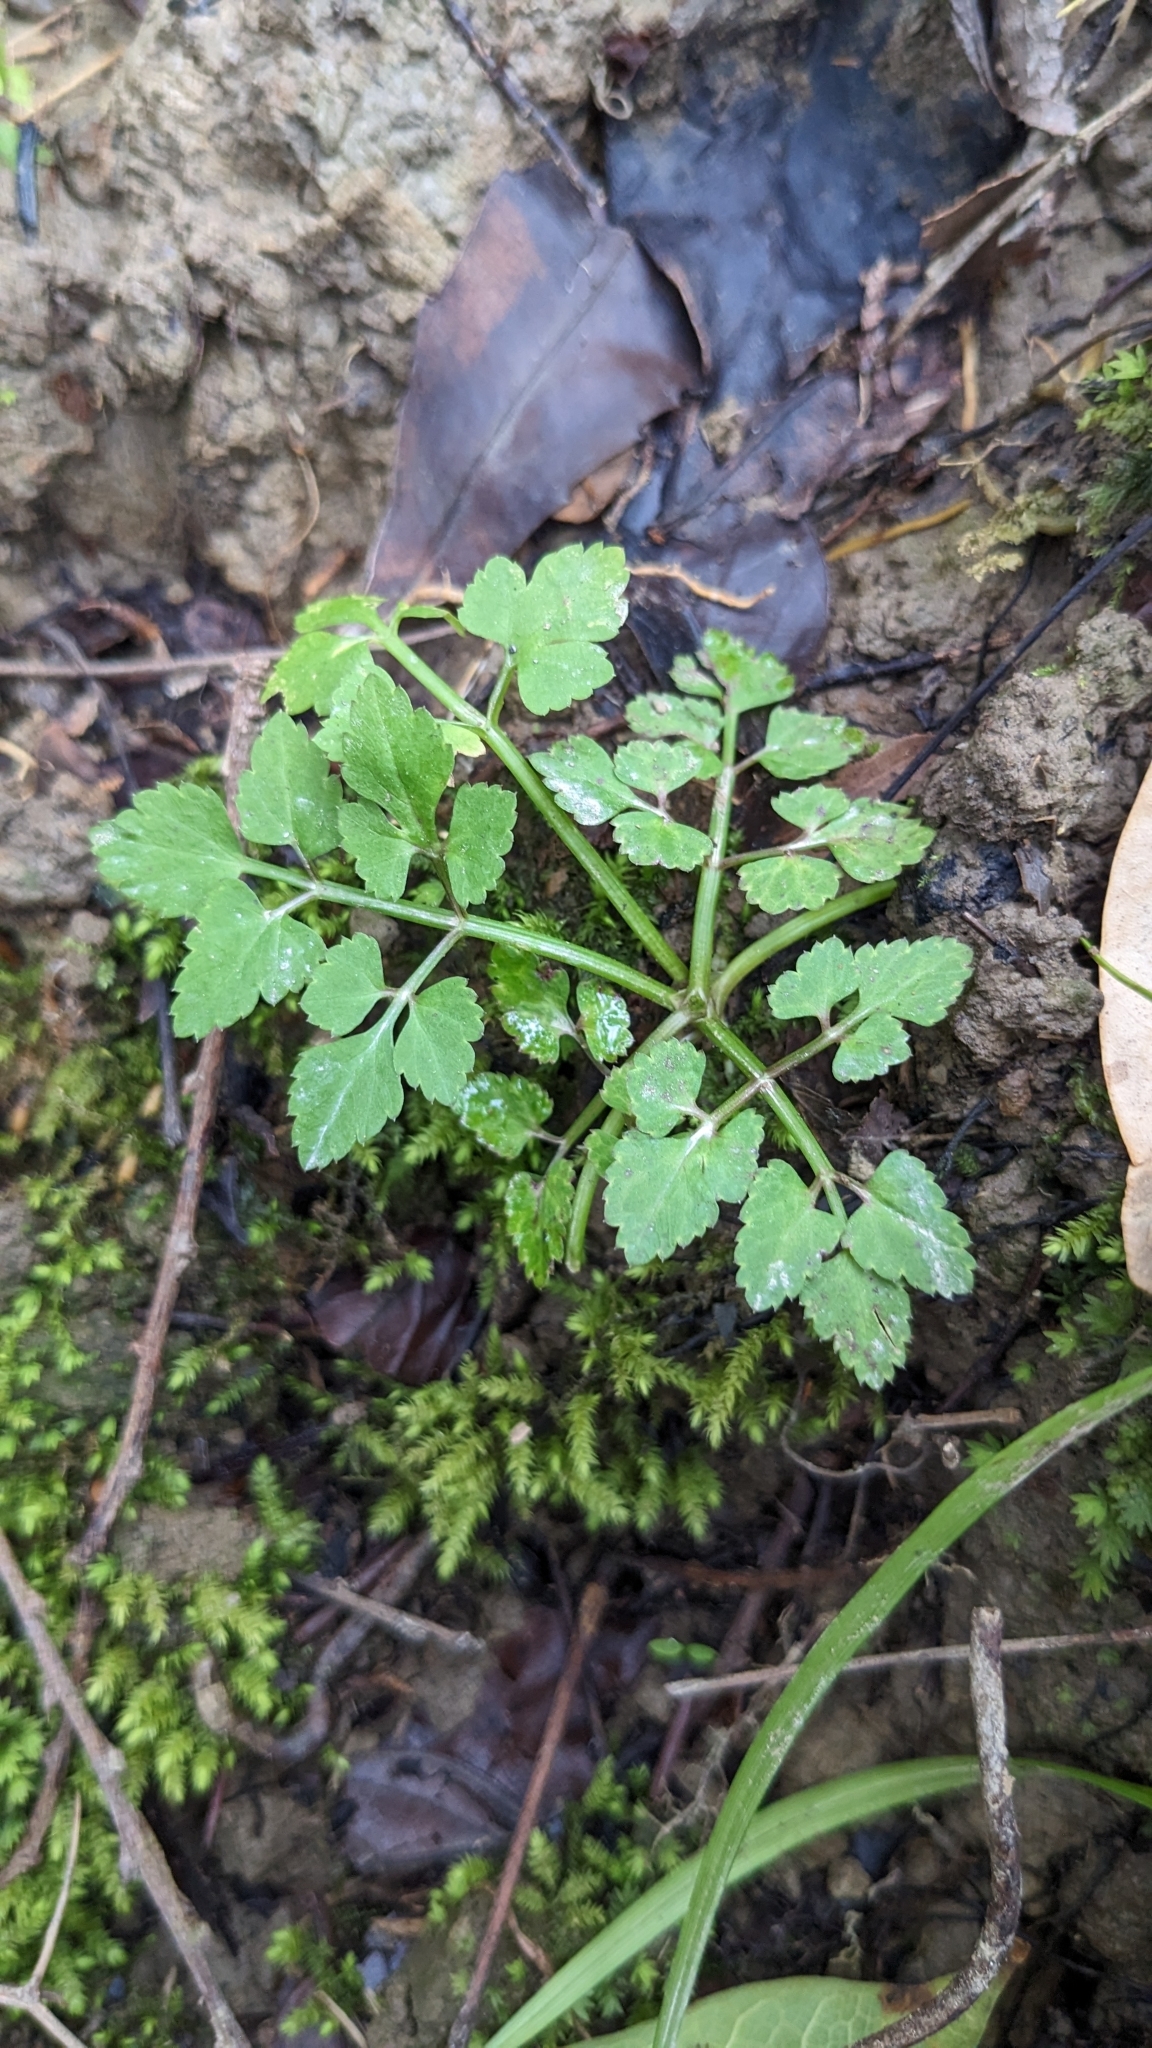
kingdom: Plantae
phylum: Tracheophyta
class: Magnoliopsida
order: Apiales
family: Apiaceae
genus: Oenanthe
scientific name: Oenanthe javanica
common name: Java water-dropwort
